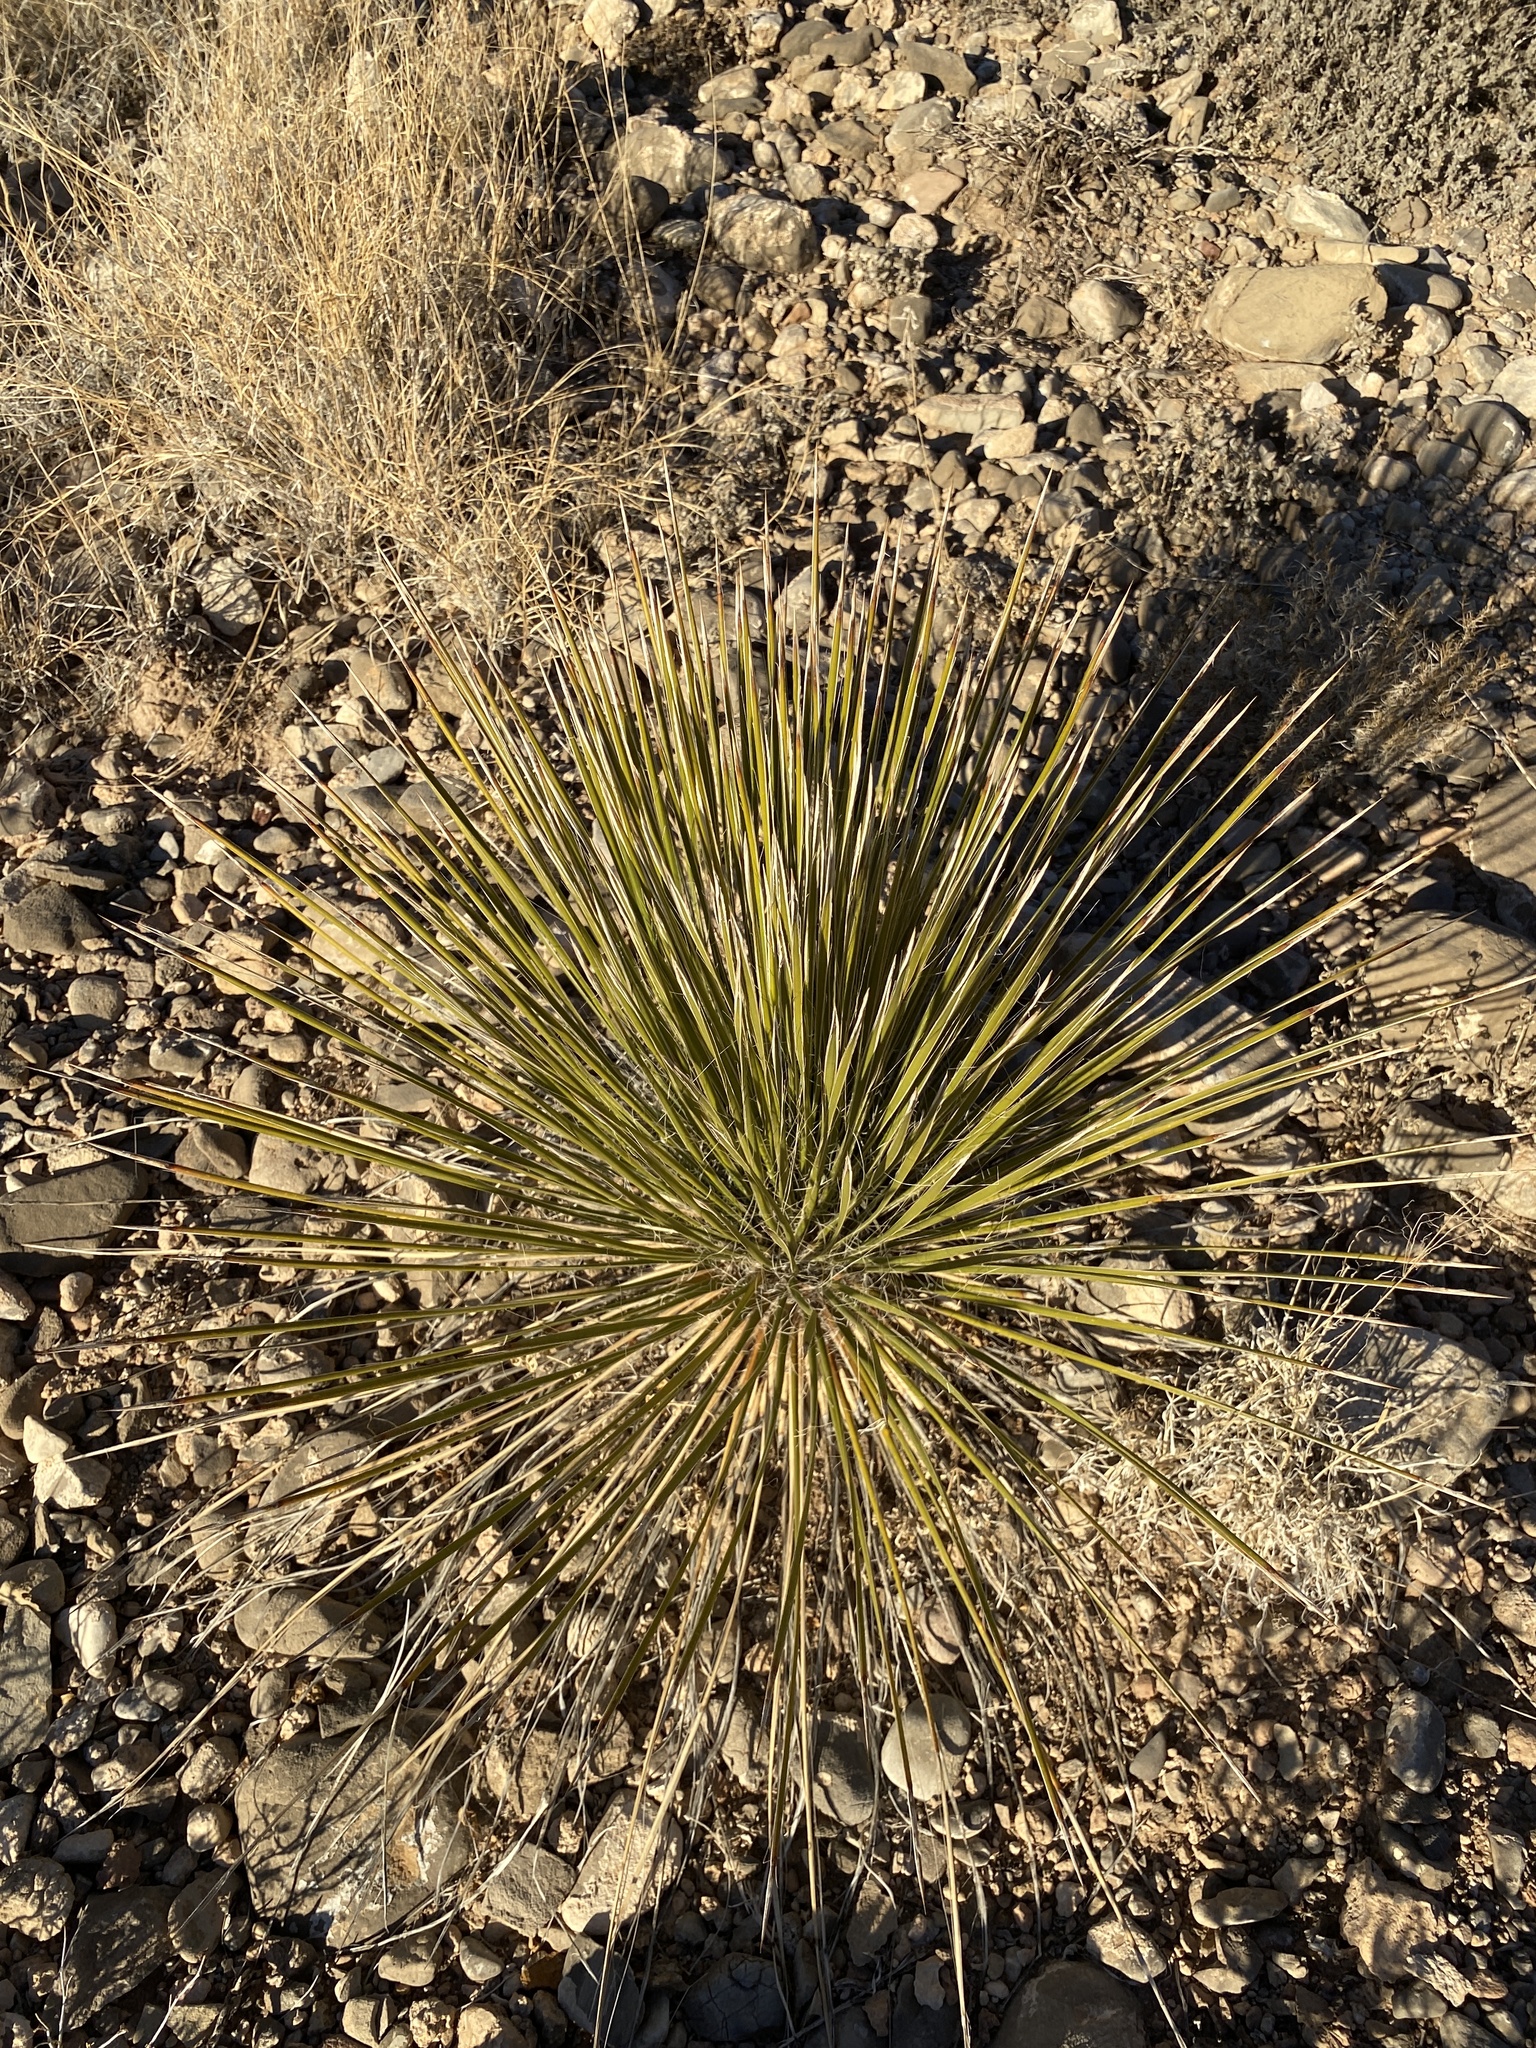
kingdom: Plantae
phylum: Tracheophyta
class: Liliopsida
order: Asparagales
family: Asparagaceae
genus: Yucca
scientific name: Yucca elata
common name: Palmella
